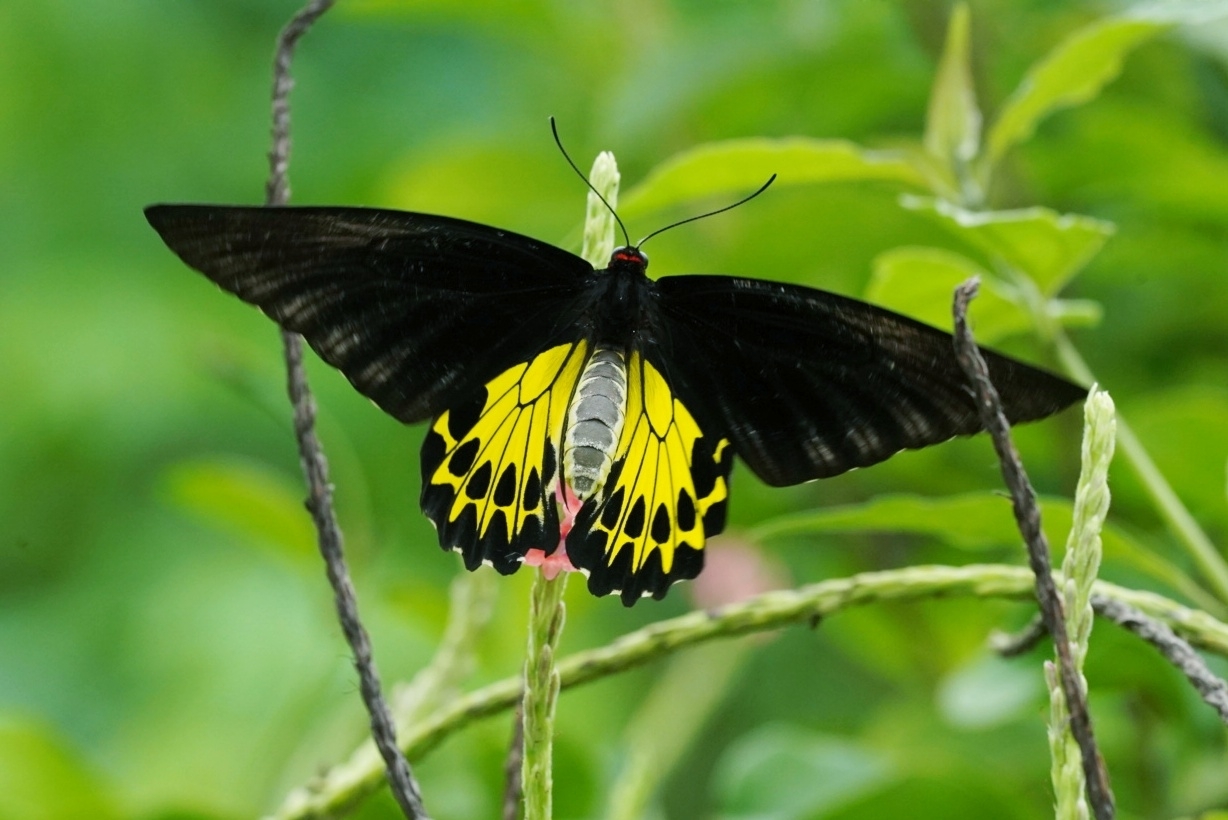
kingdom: Animalia
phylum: Arthropoda
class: Insecta
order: Lepidoptera
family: Papilionidae
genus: Troides
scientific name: Troides helena
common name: Common birdwing
